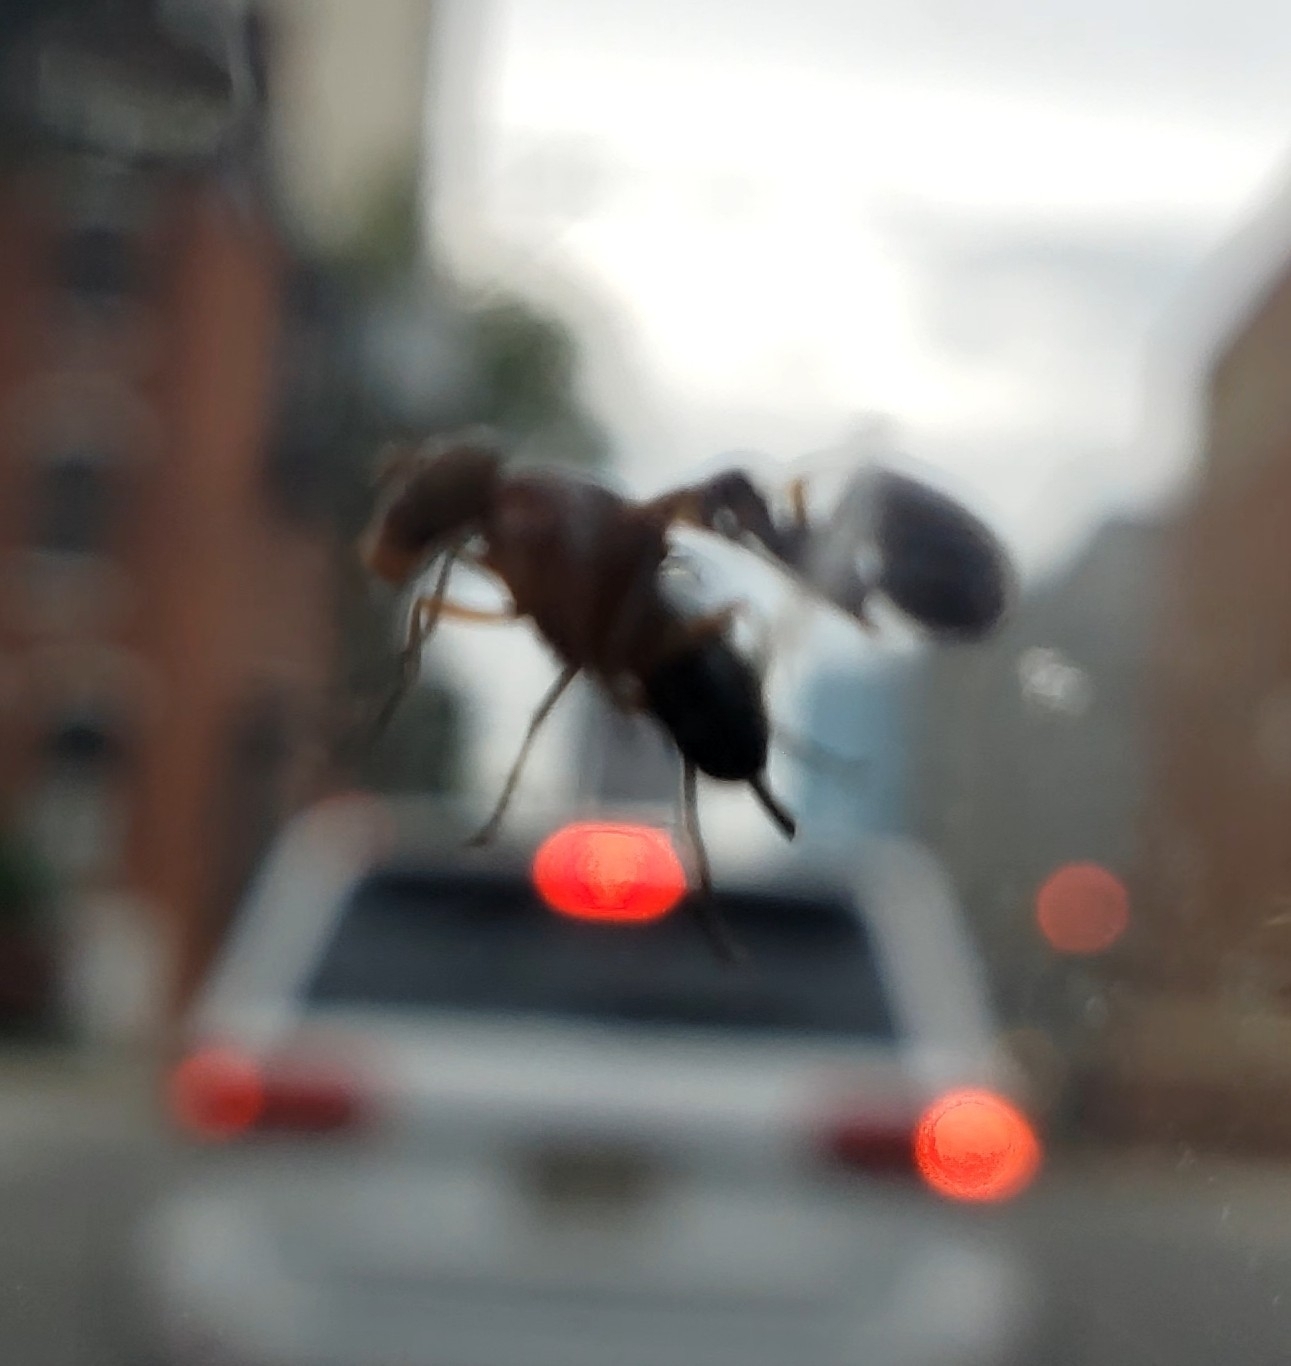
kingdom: Animalia
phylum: Arthropoda
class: Insecta
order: Diptera
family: Ulidiidae
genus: Delphinia
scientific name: Delphinia picta
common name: Common picture-winged fly
